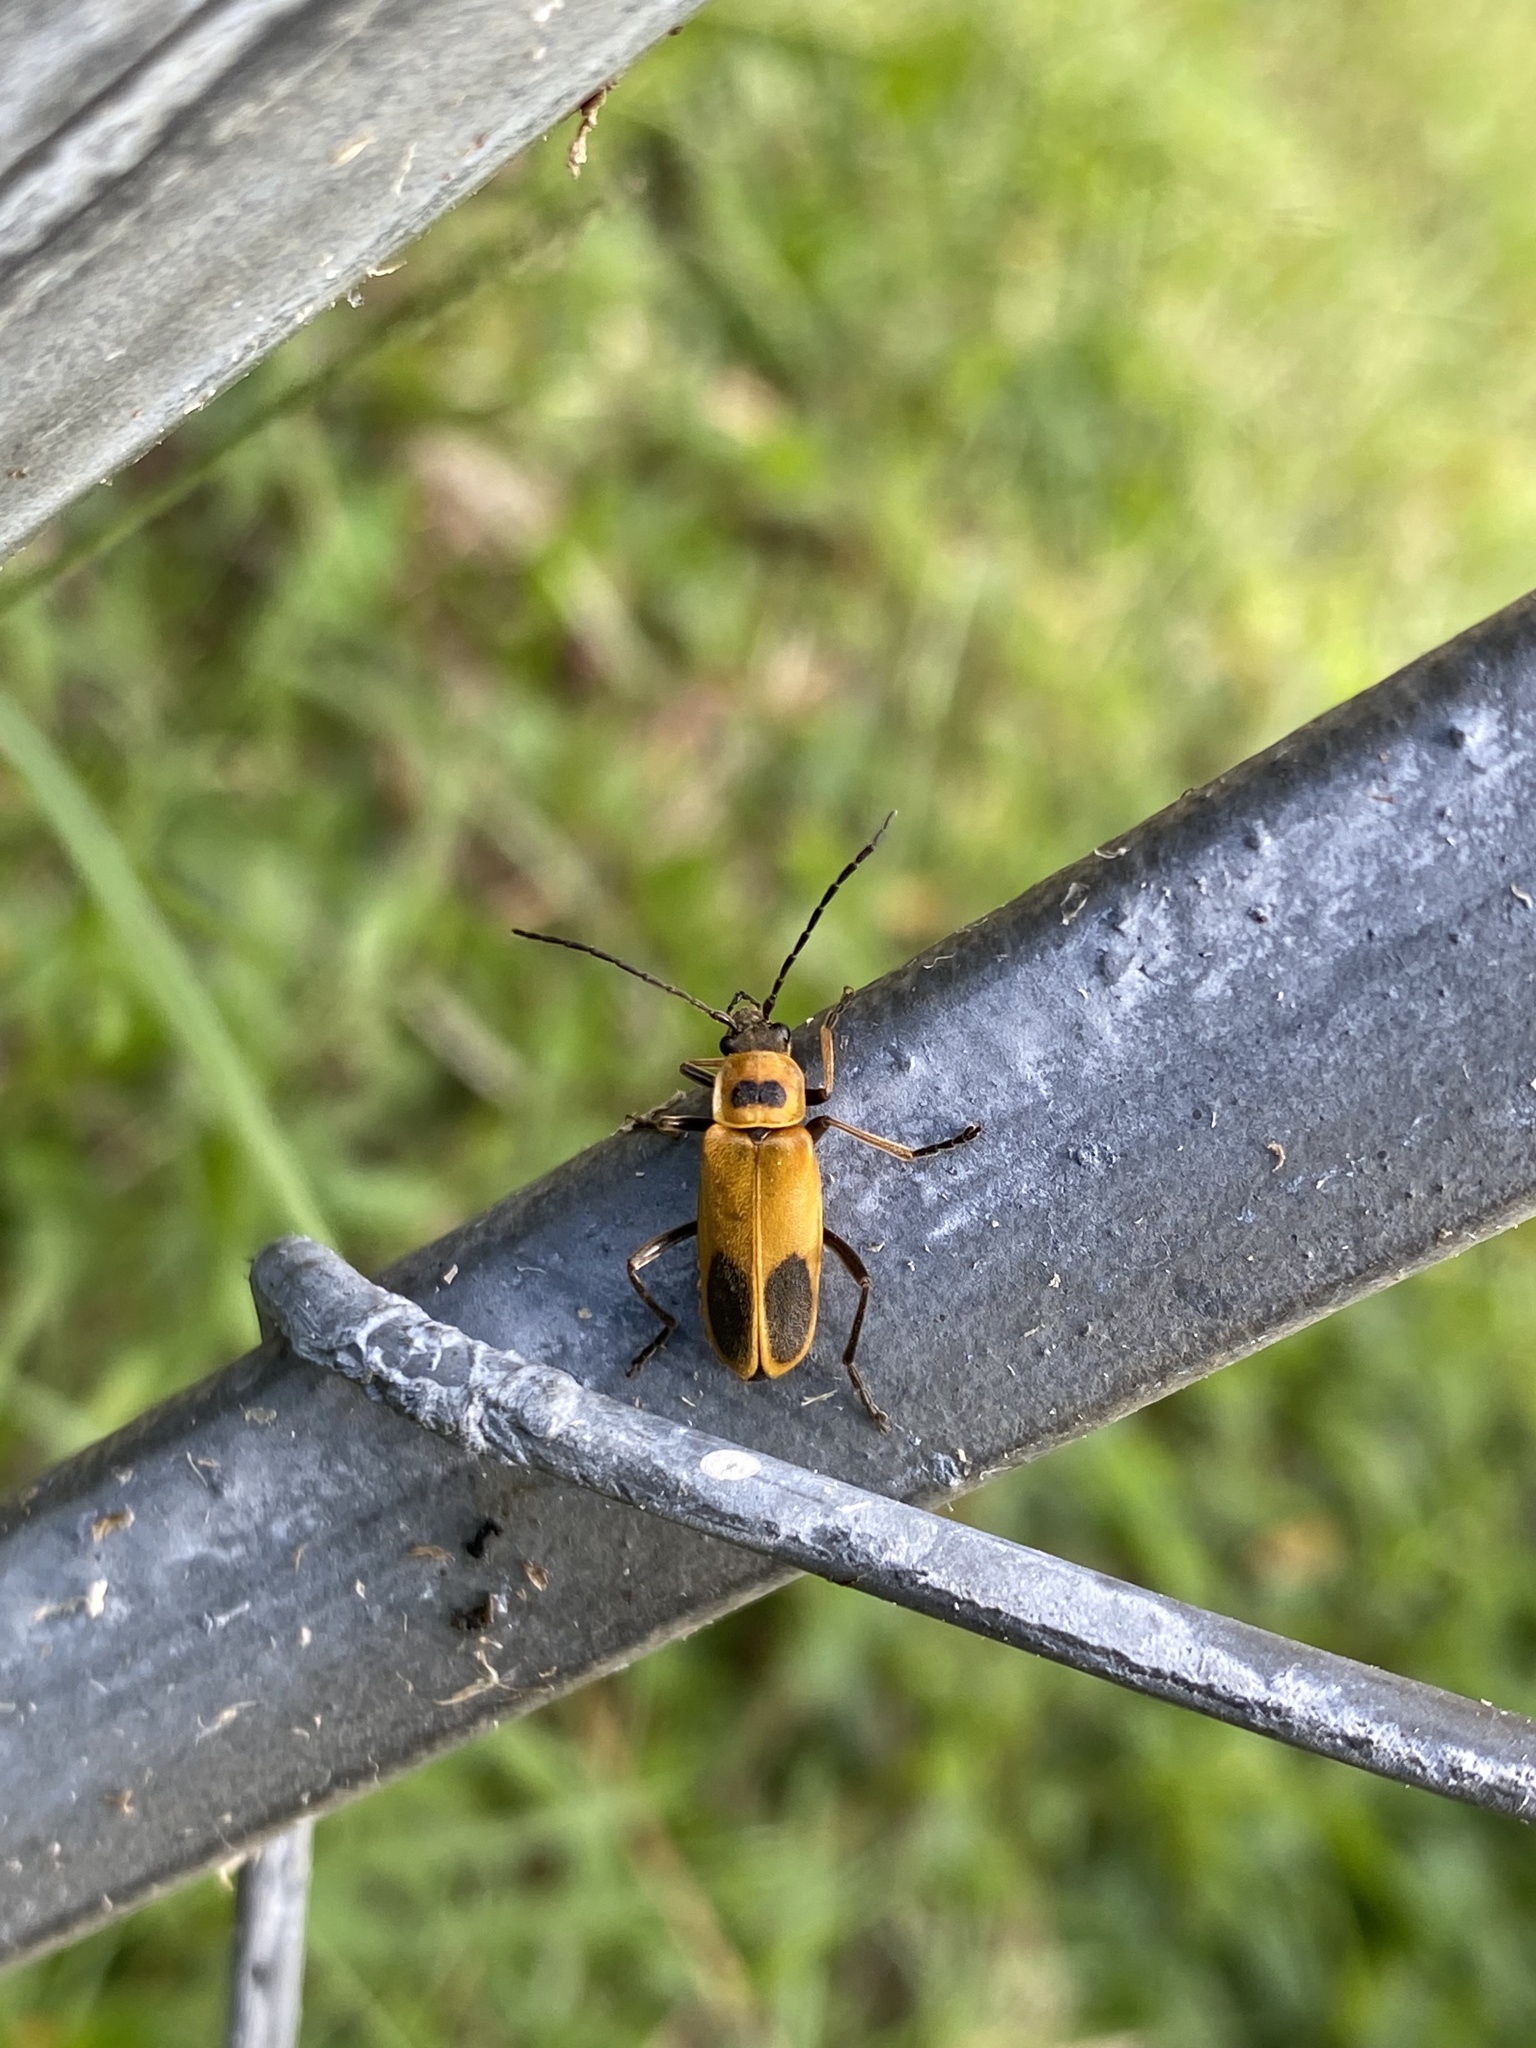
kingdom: Animalia
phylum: Arthropoda
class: Insecta
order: Coleoptera
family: Cantharidae
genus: Chauliognathus
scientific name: Chauliognathus pensylvanicus
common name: Goldenrod soldier beetle
